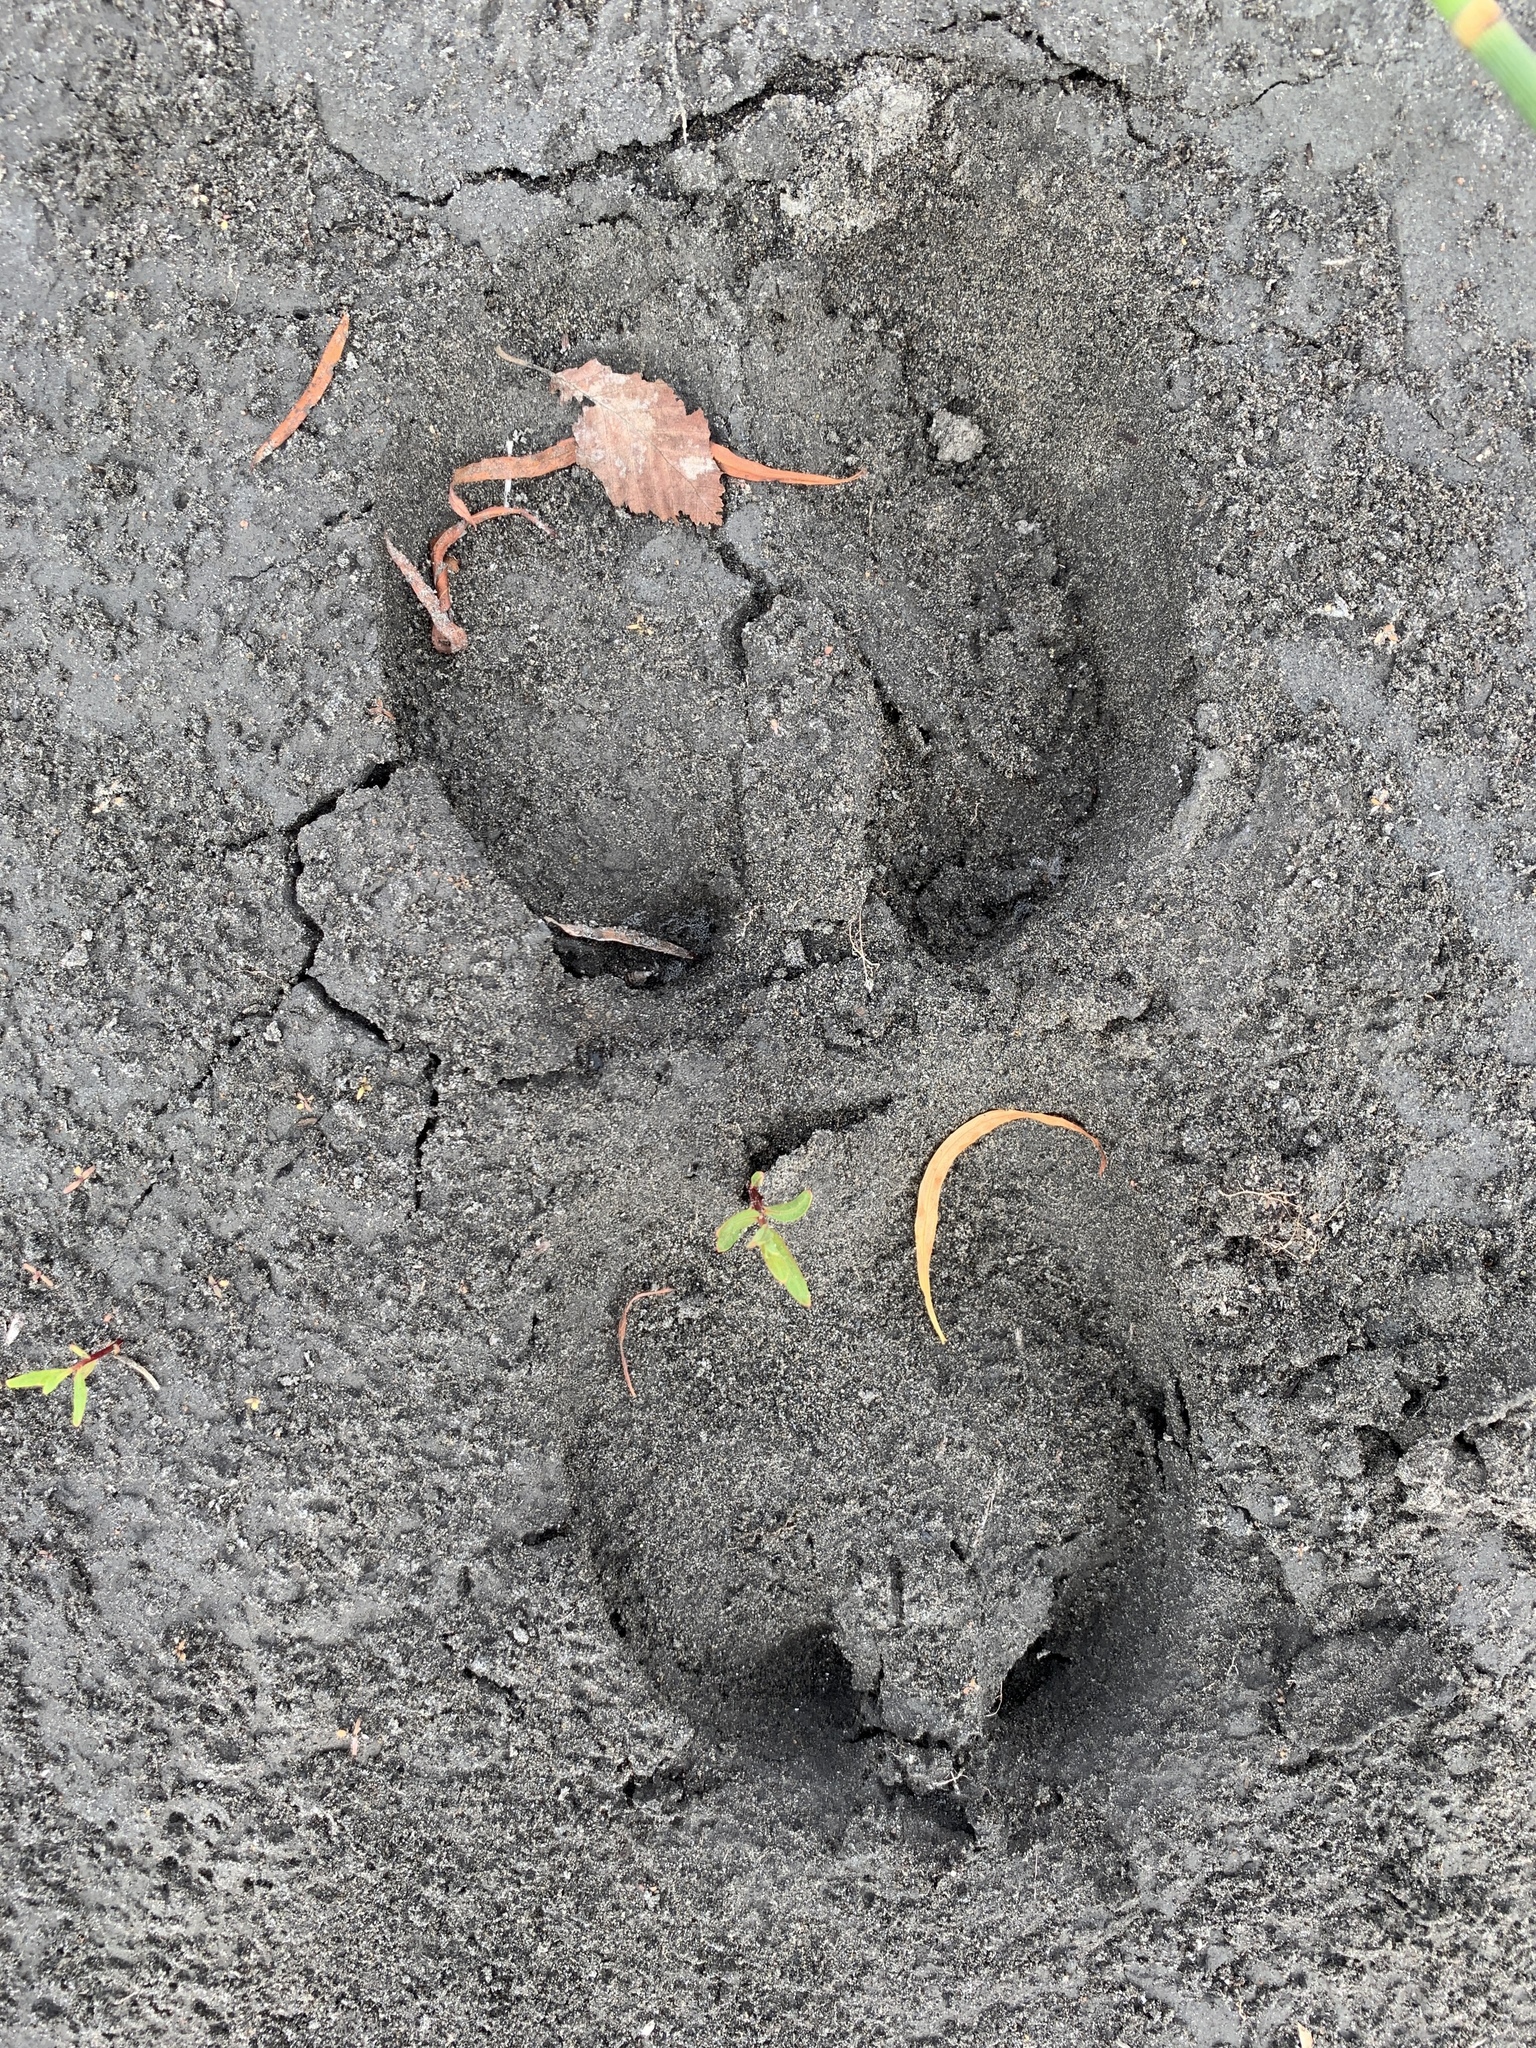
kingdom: Animalia
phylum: Chordata
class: Mammalia
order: Artiodactyla
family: Bovidae
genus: Bison
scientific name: Bison bison
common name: American bison
